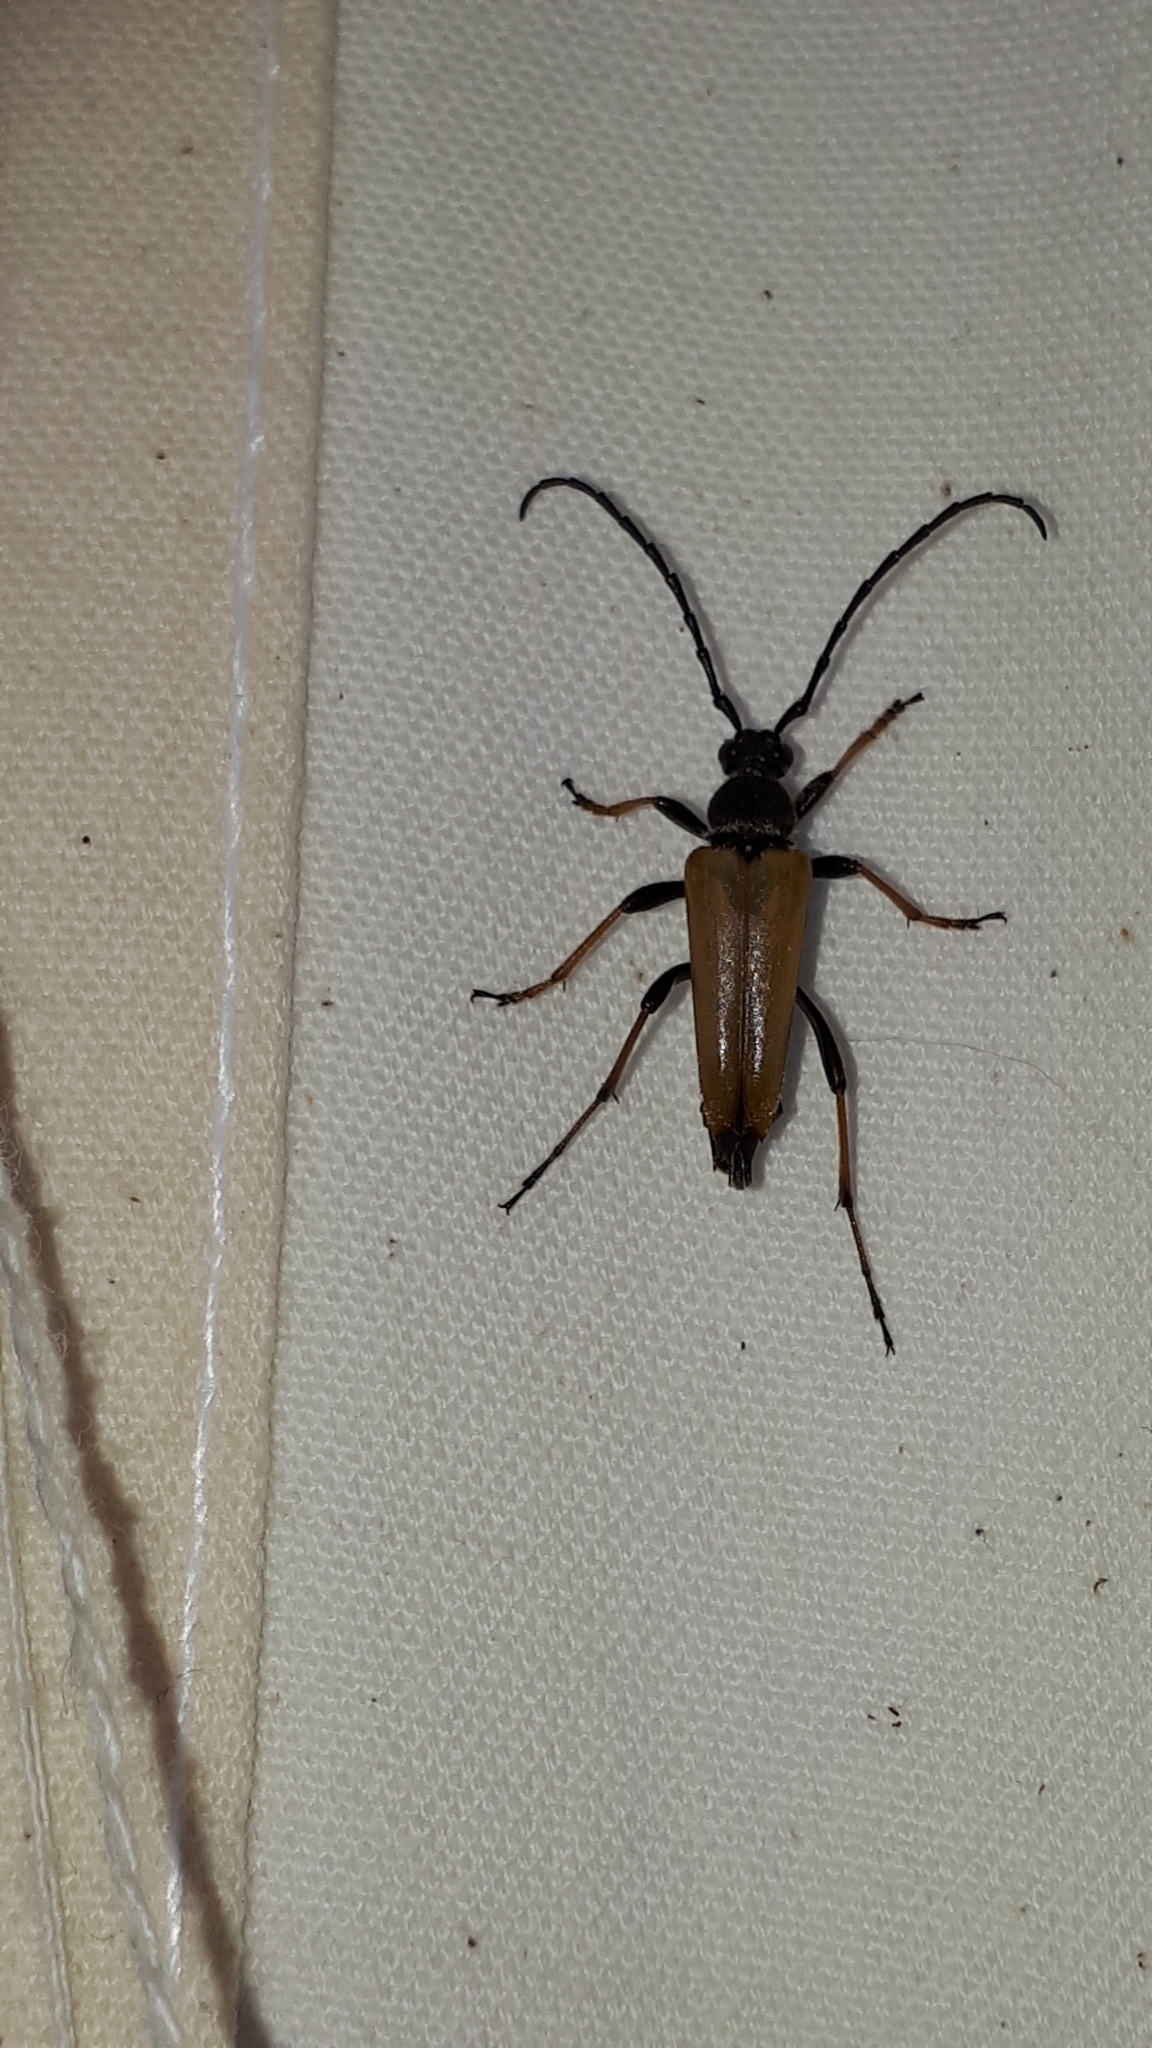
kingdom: Animalia
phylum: Arthropoda
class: Insecta
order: Coleoptera
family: Cerambycidae
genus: Stictoleptura
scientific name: Stictoleptura rubra
